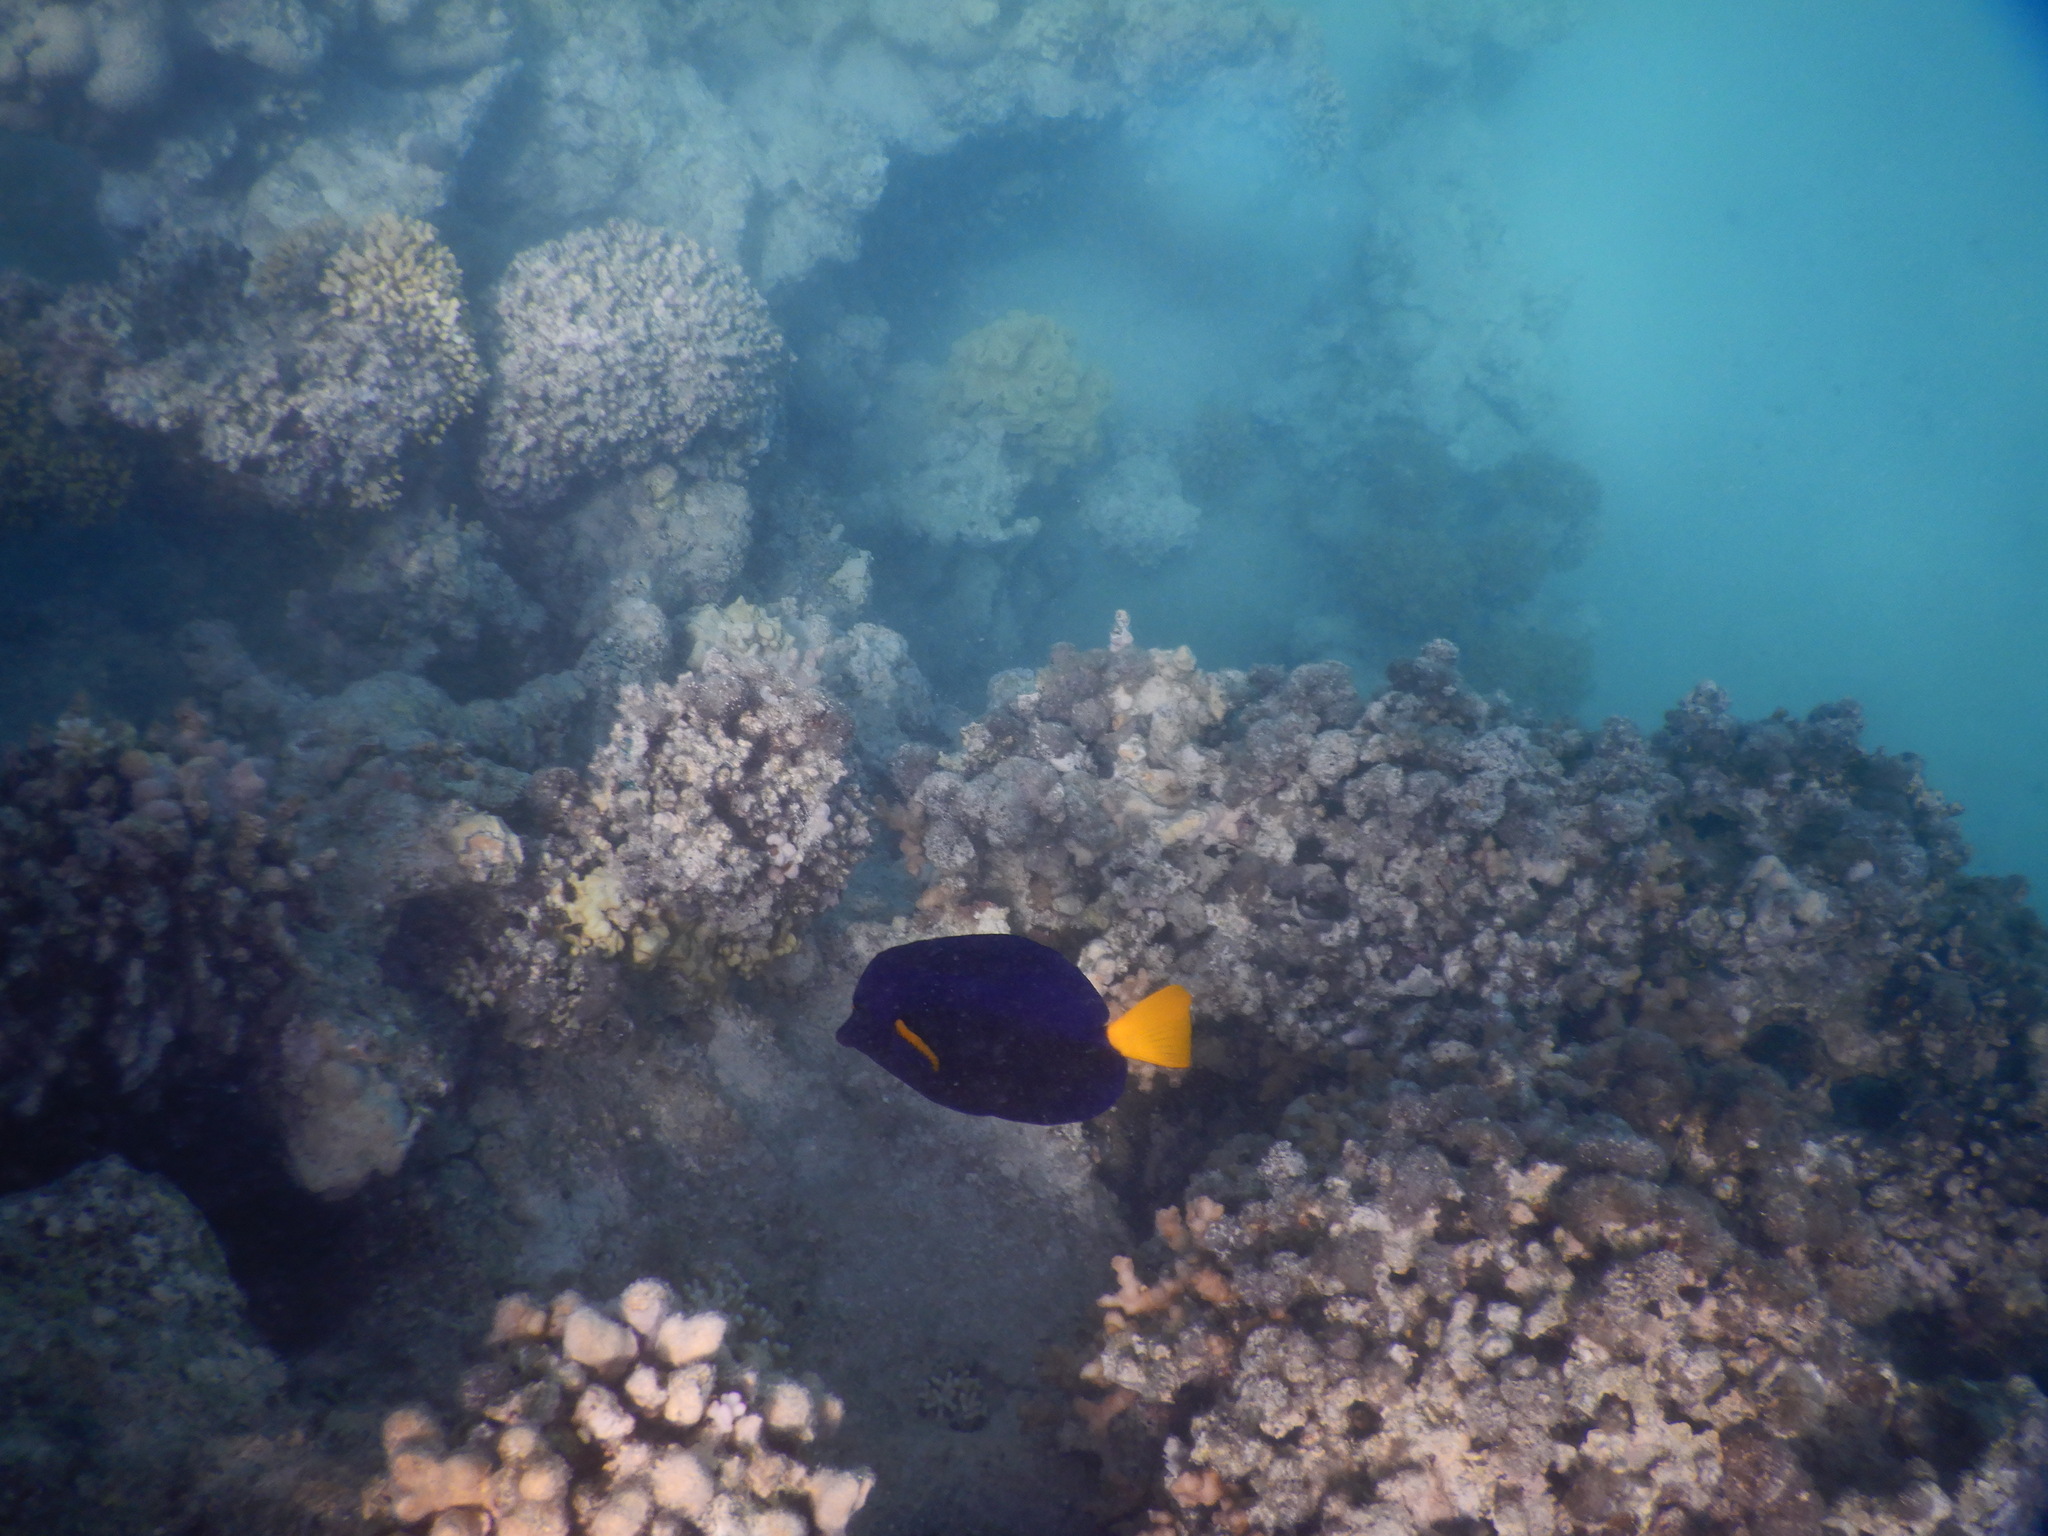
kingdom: Animalia
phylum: Chordata
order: Perciformes
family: Acanthuridae
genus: Zebrasoma
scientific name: Zebrasoma xanthurum
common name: Purple tang
